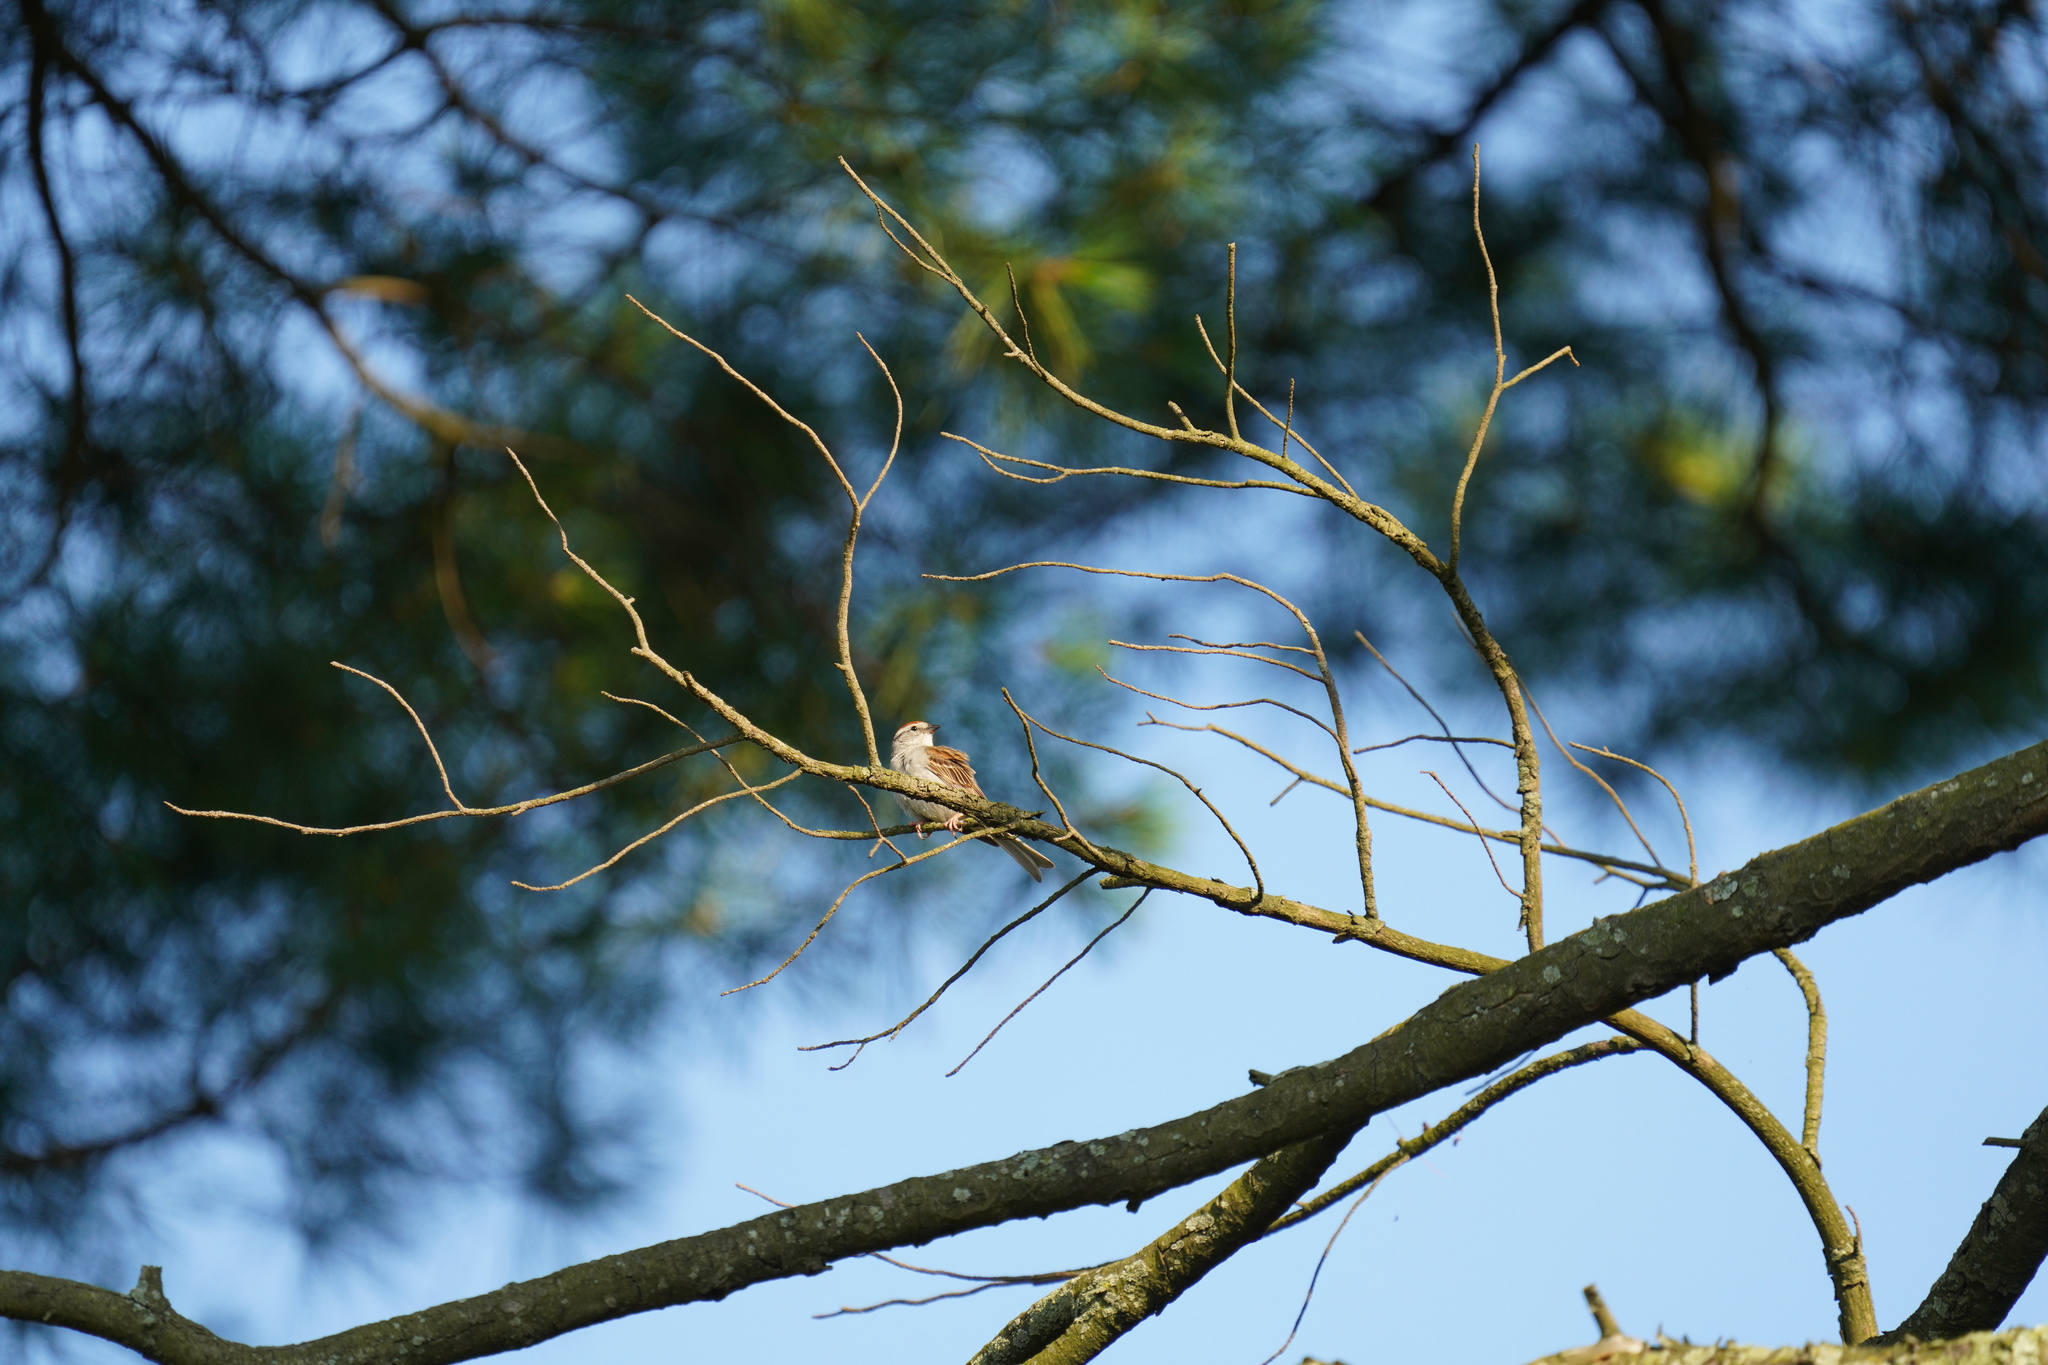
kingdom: Animalia
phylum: Chordata
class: Aves
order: Passeriformes
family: Passerellidae
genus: Spizella
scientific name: Spizella passerina
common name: Chipping sparrow
